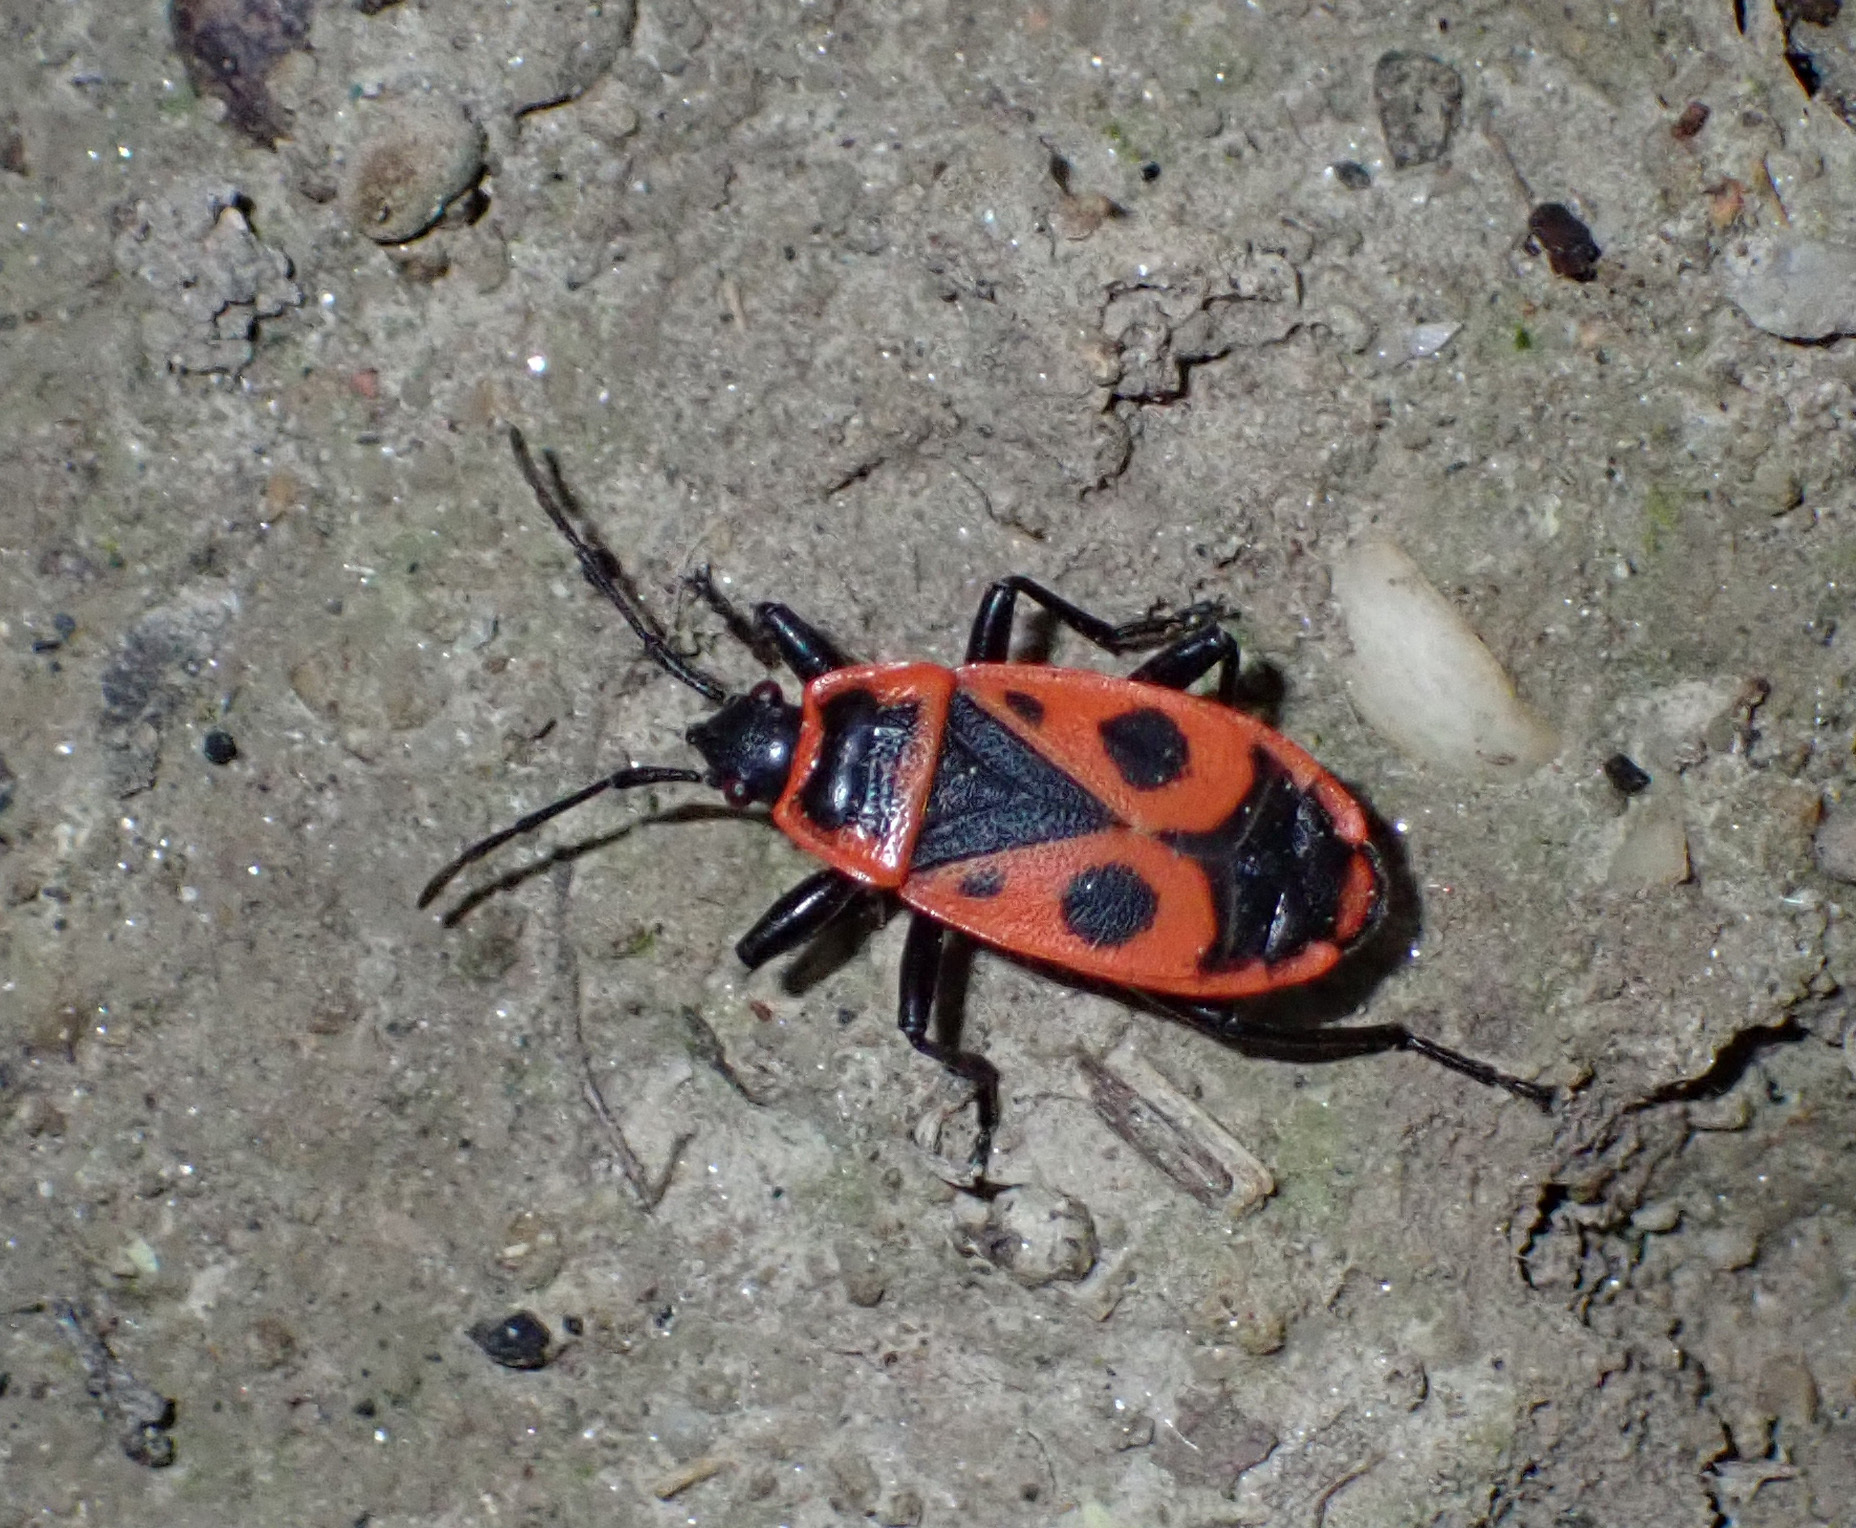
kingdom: Animalia
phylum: Arthropoda
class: Insecta
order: Hemiptera
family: Pyrrhocoridae
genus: Pyrrhocoris
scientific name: Pyrrhocoris apterus
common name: Firebug
